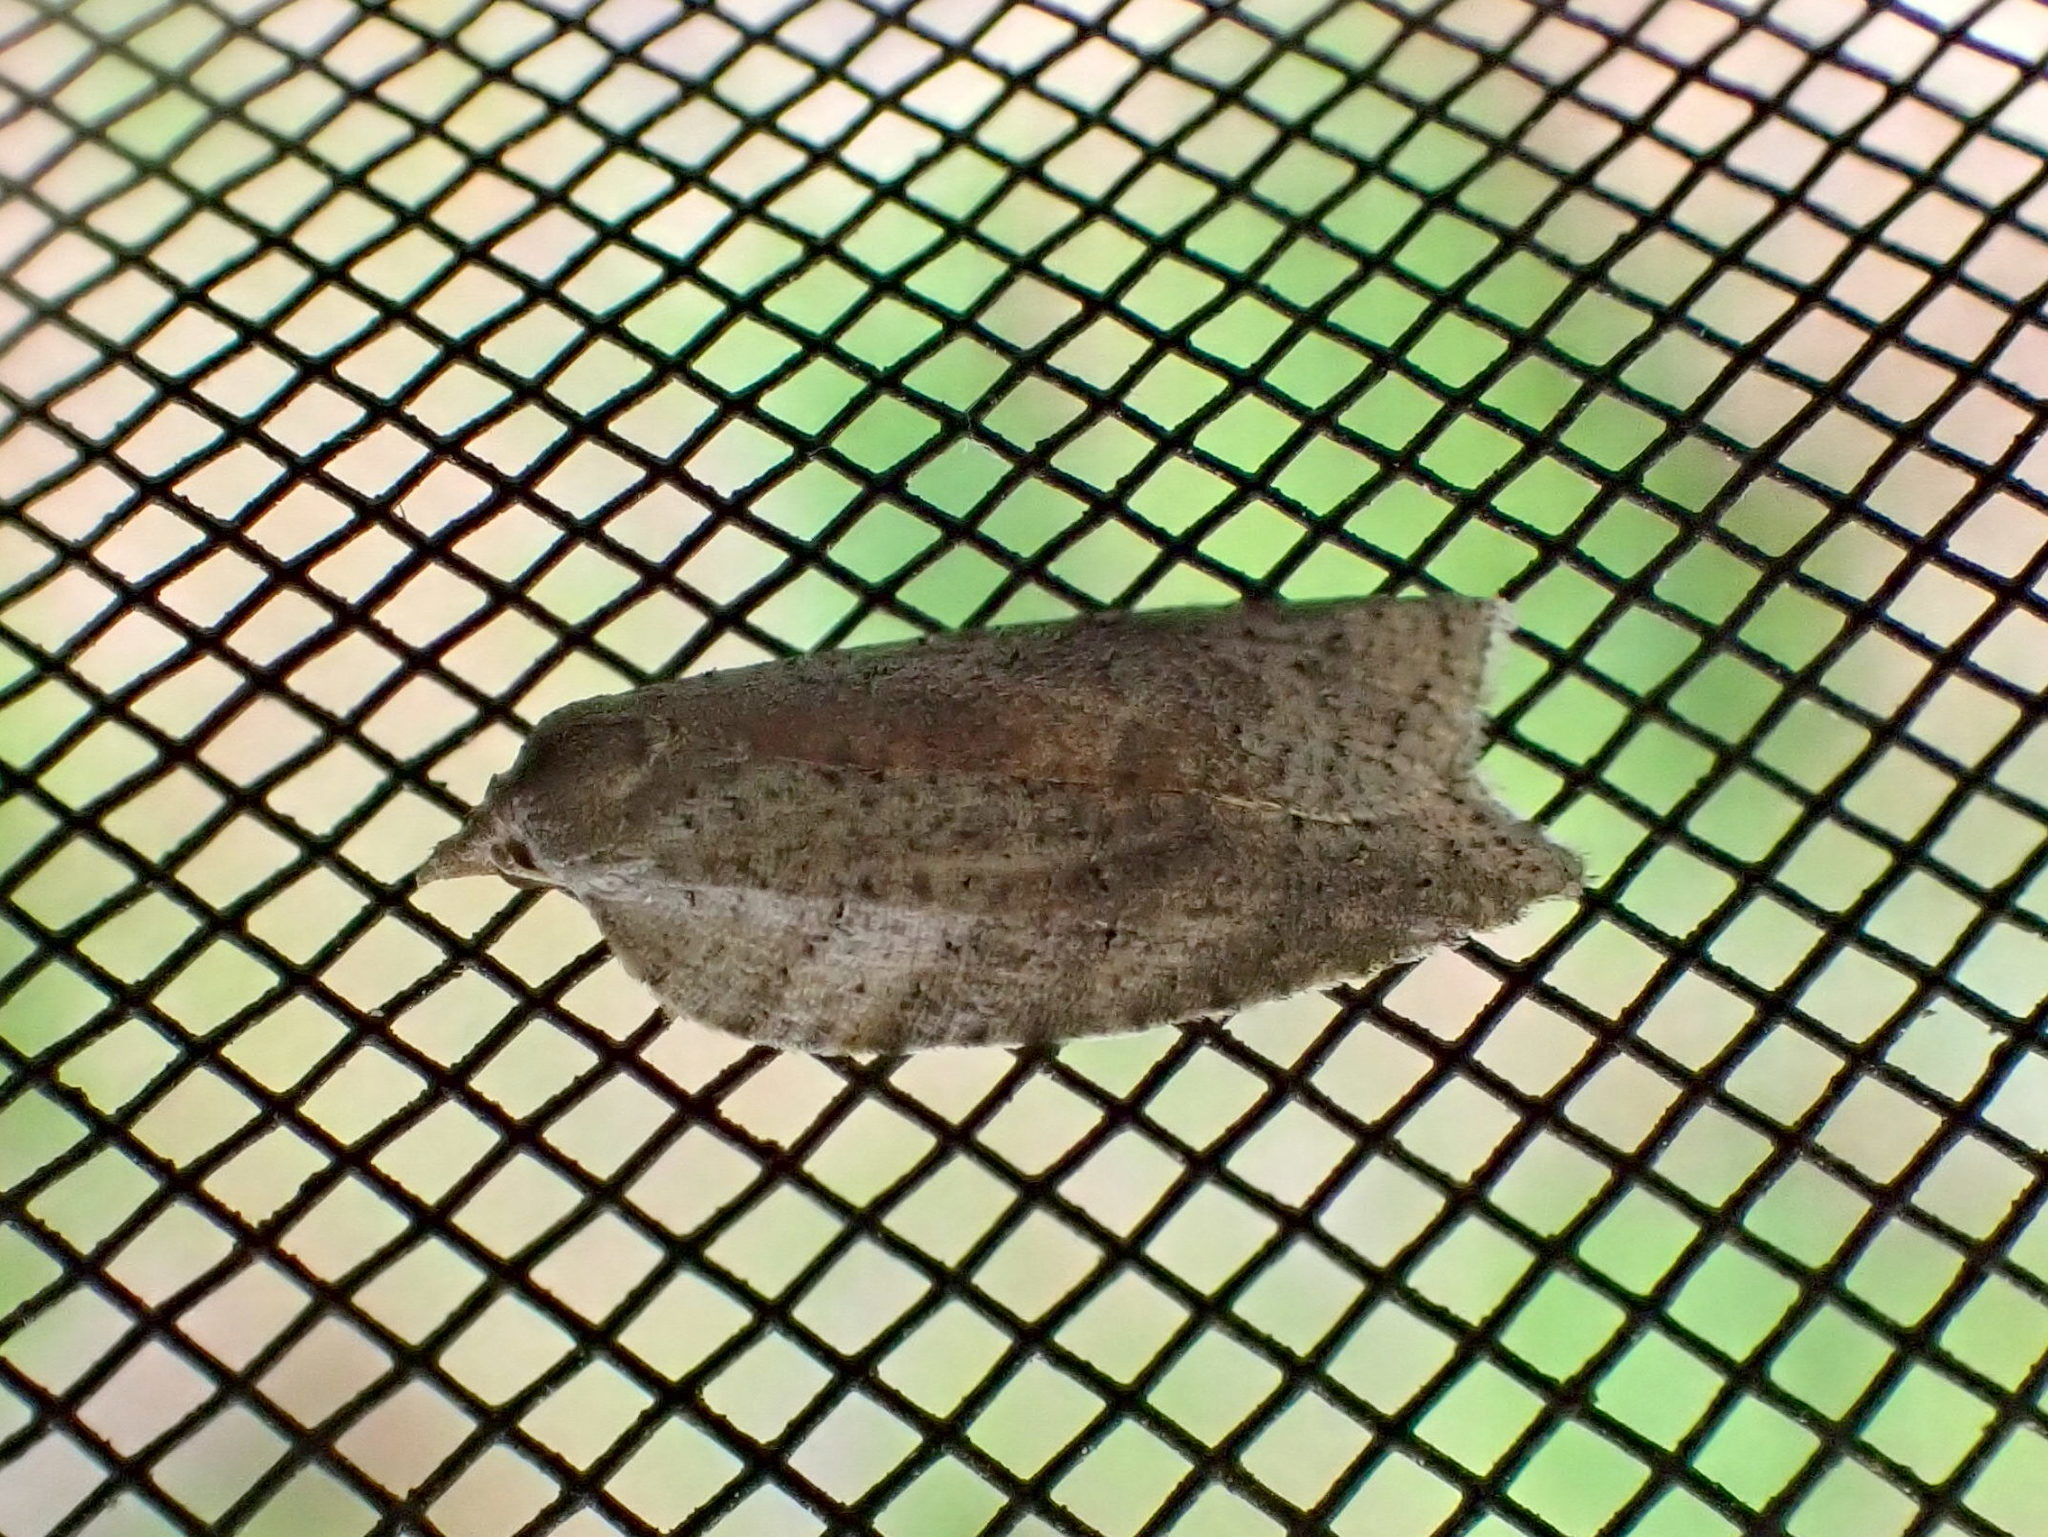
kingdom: Animalia
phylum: Arthropoda
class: Insecta
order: Lepidoptera
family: Tortricidae
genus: Amorbia
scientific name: Amorbia humerosana
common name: White-lined leafroller moth
